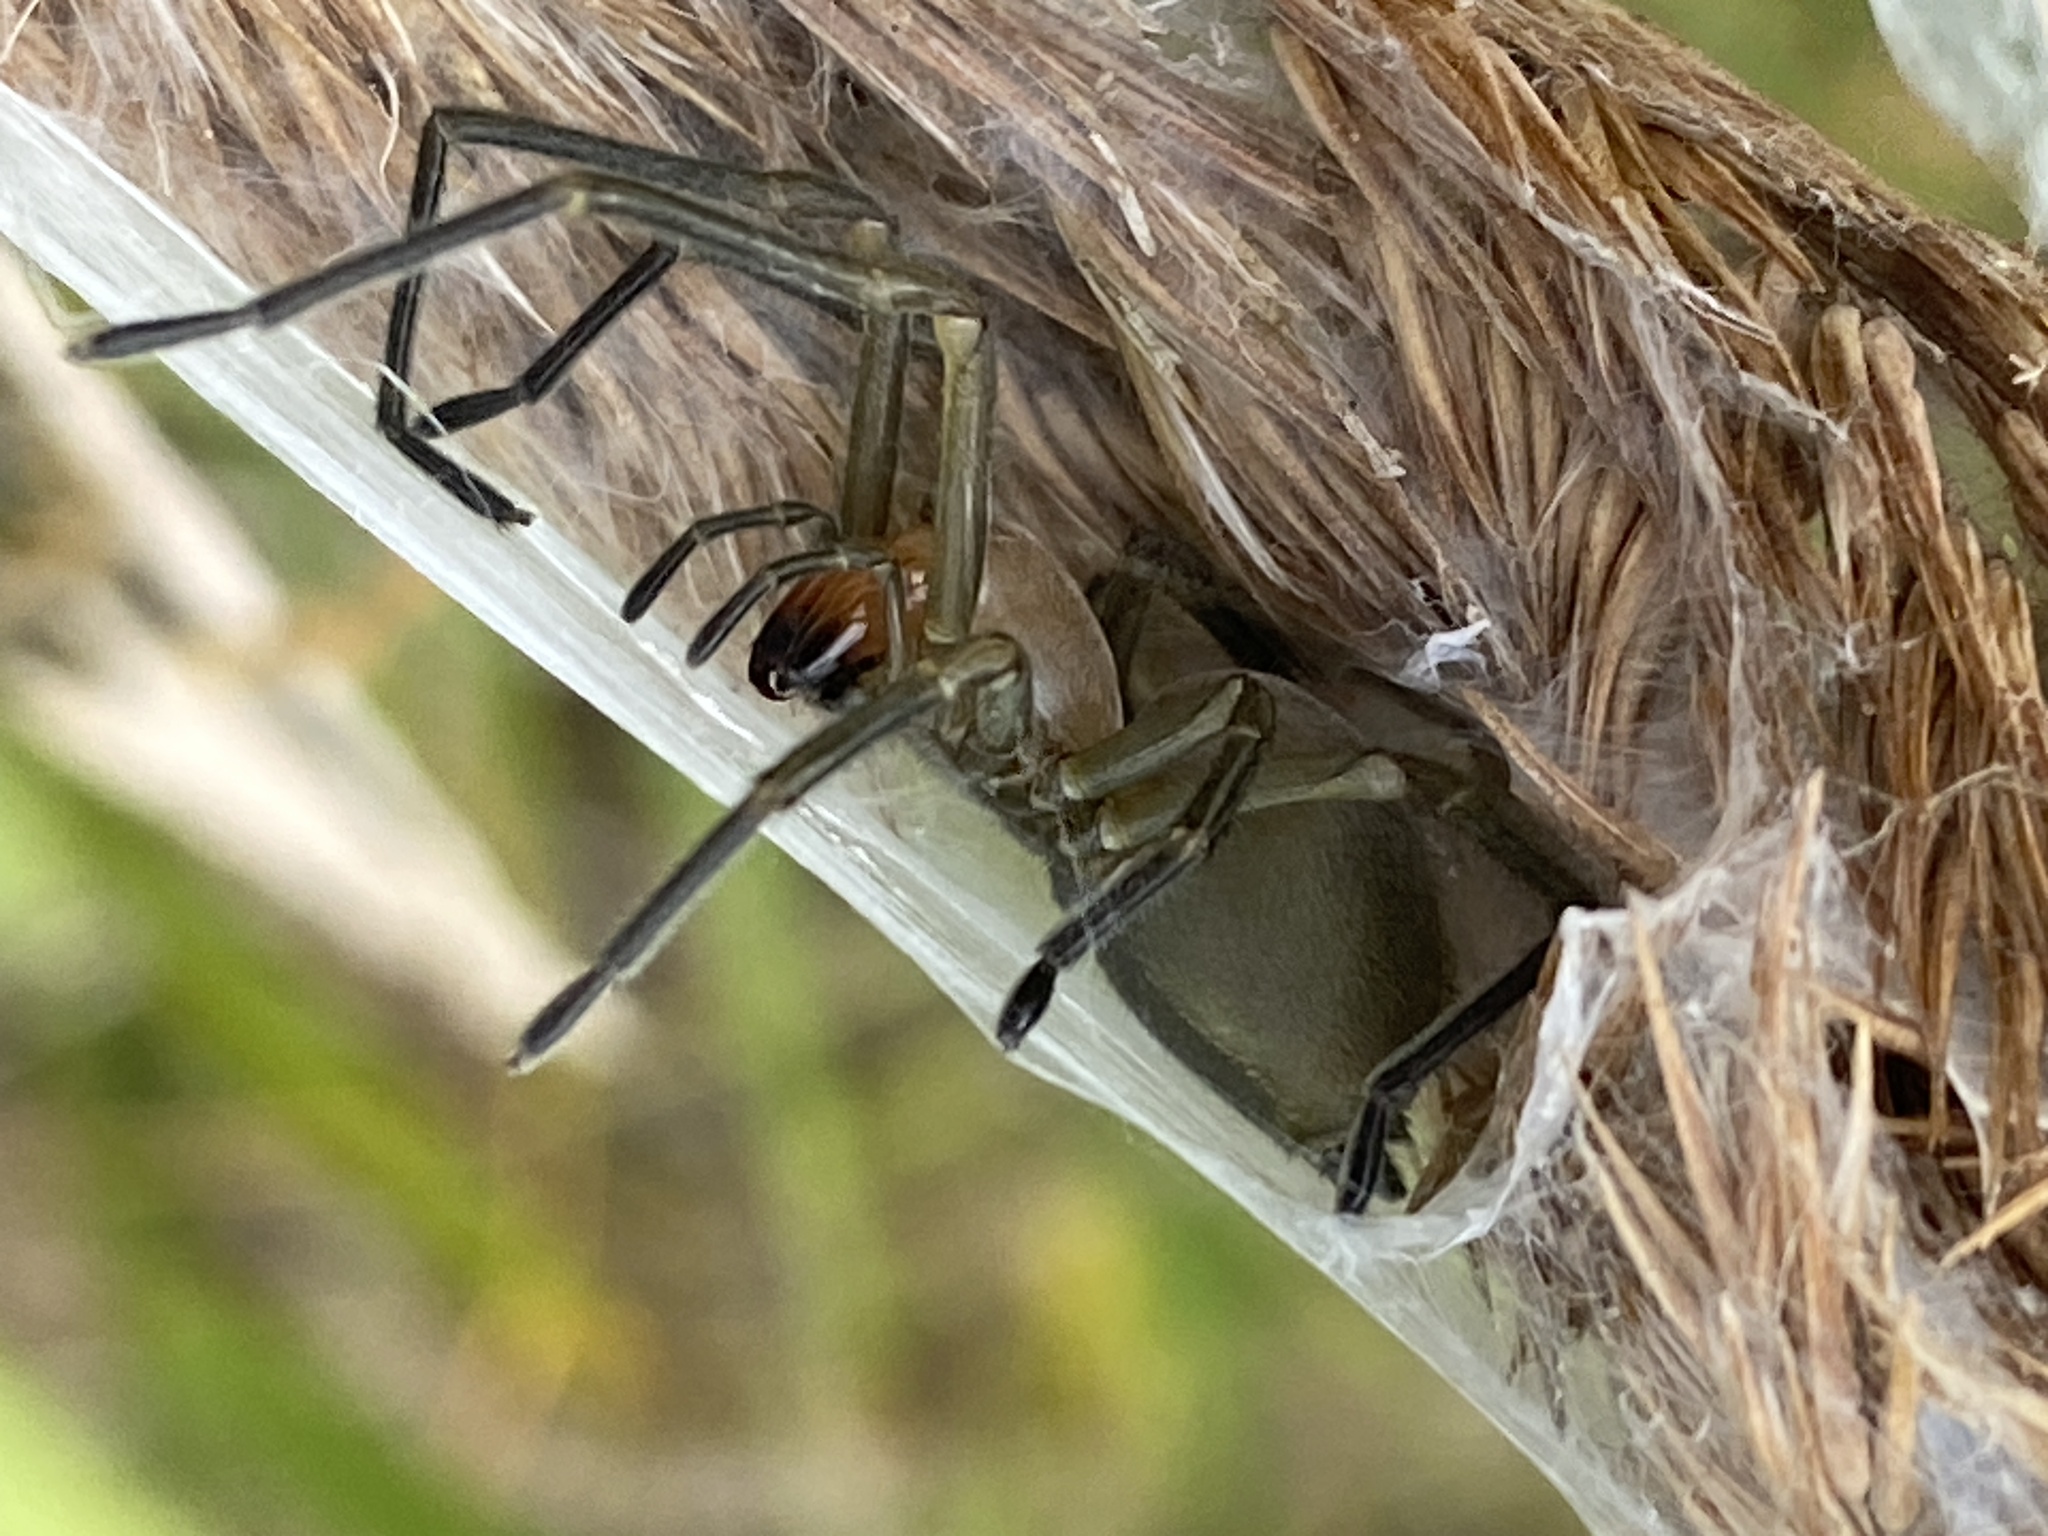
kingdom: Animalia
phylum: Arthropoda
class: Arachnida
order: Araneae
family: Cheiracanthiidae
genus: Cheiracanthium
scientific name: Cheiracanthium punctorium
